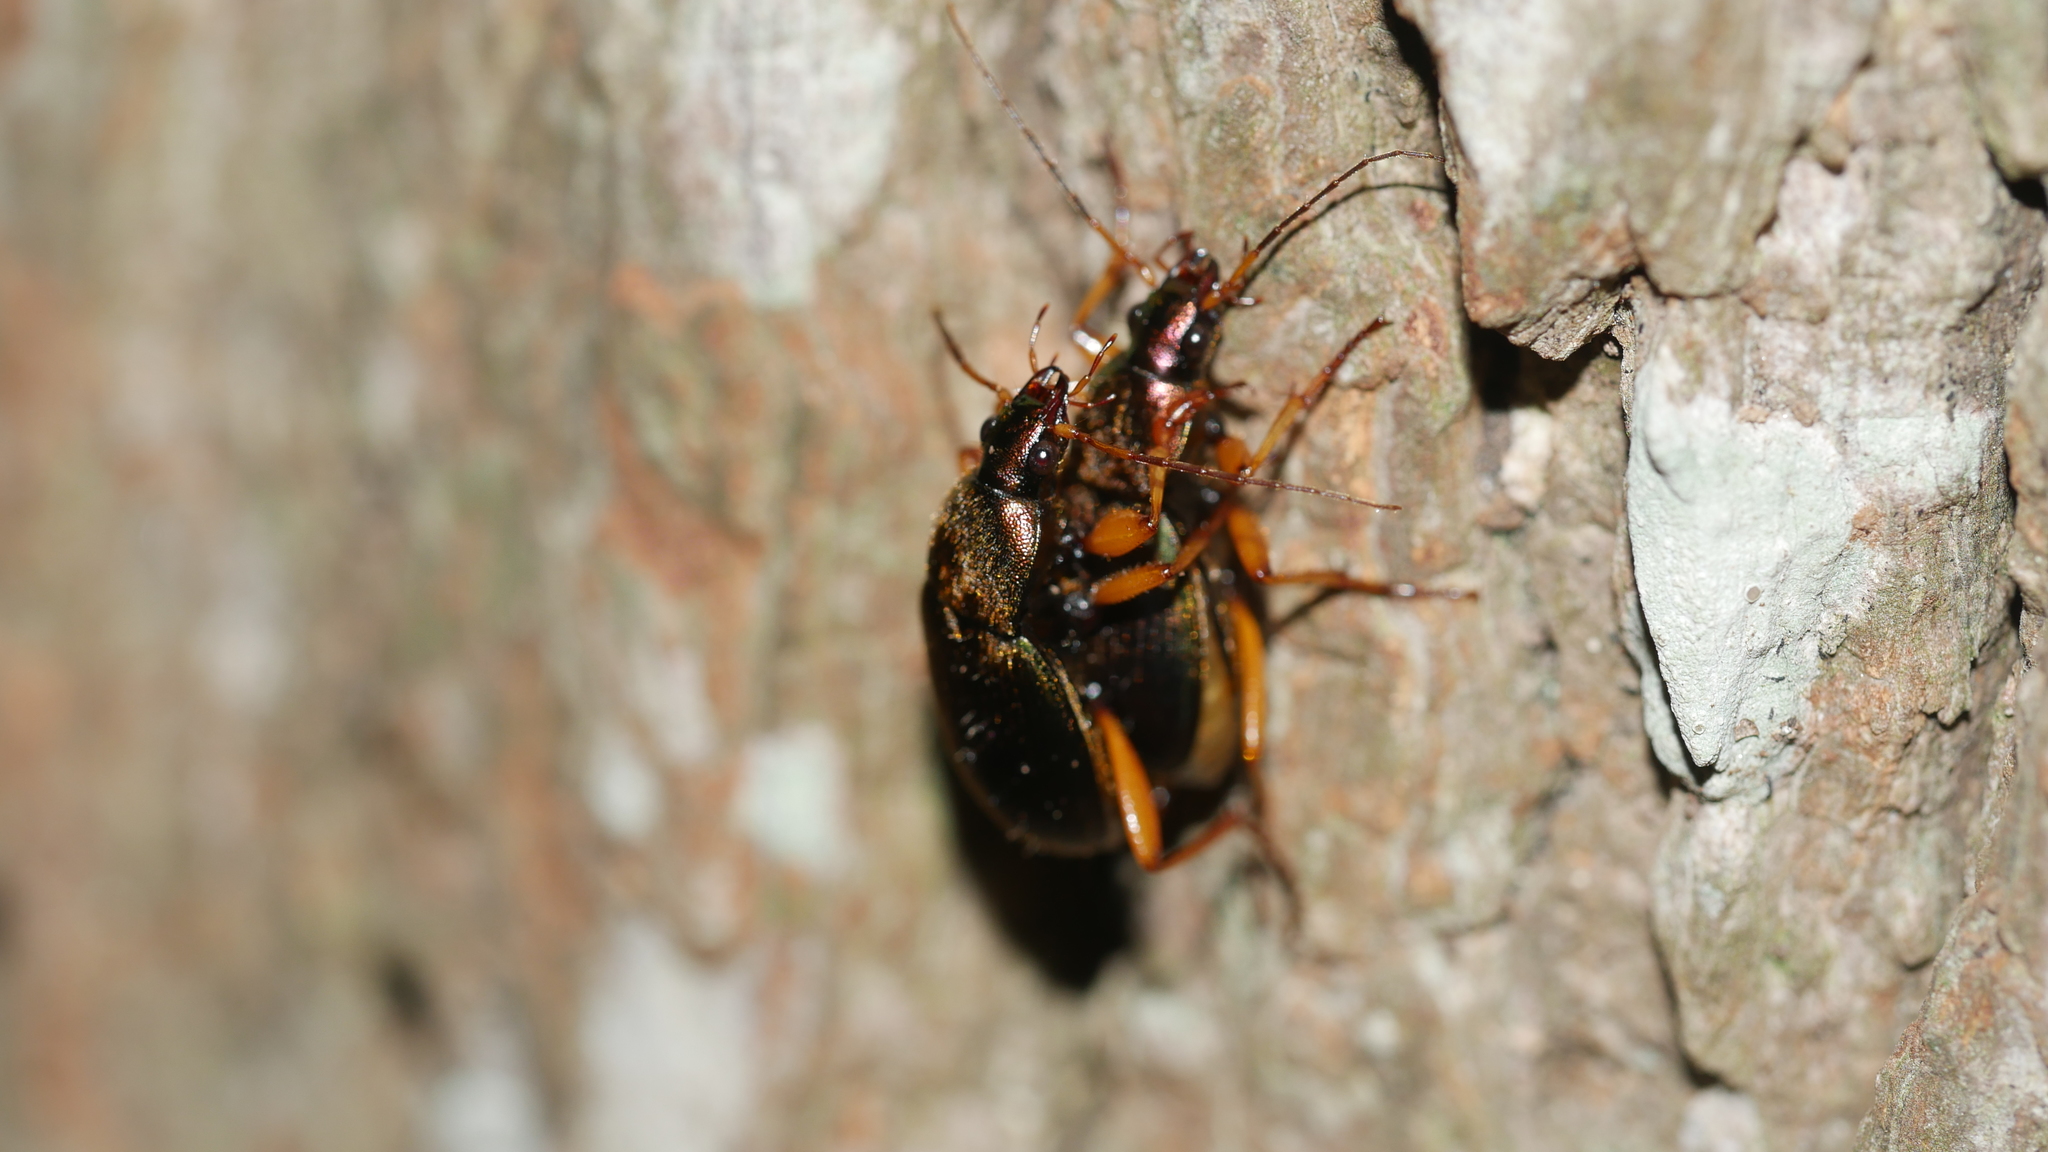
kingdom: Animalia
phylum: Arthropoda
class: Insecta
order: Coleoptera
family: Carabidae
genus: Chlaenius
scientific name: Chlaenius
